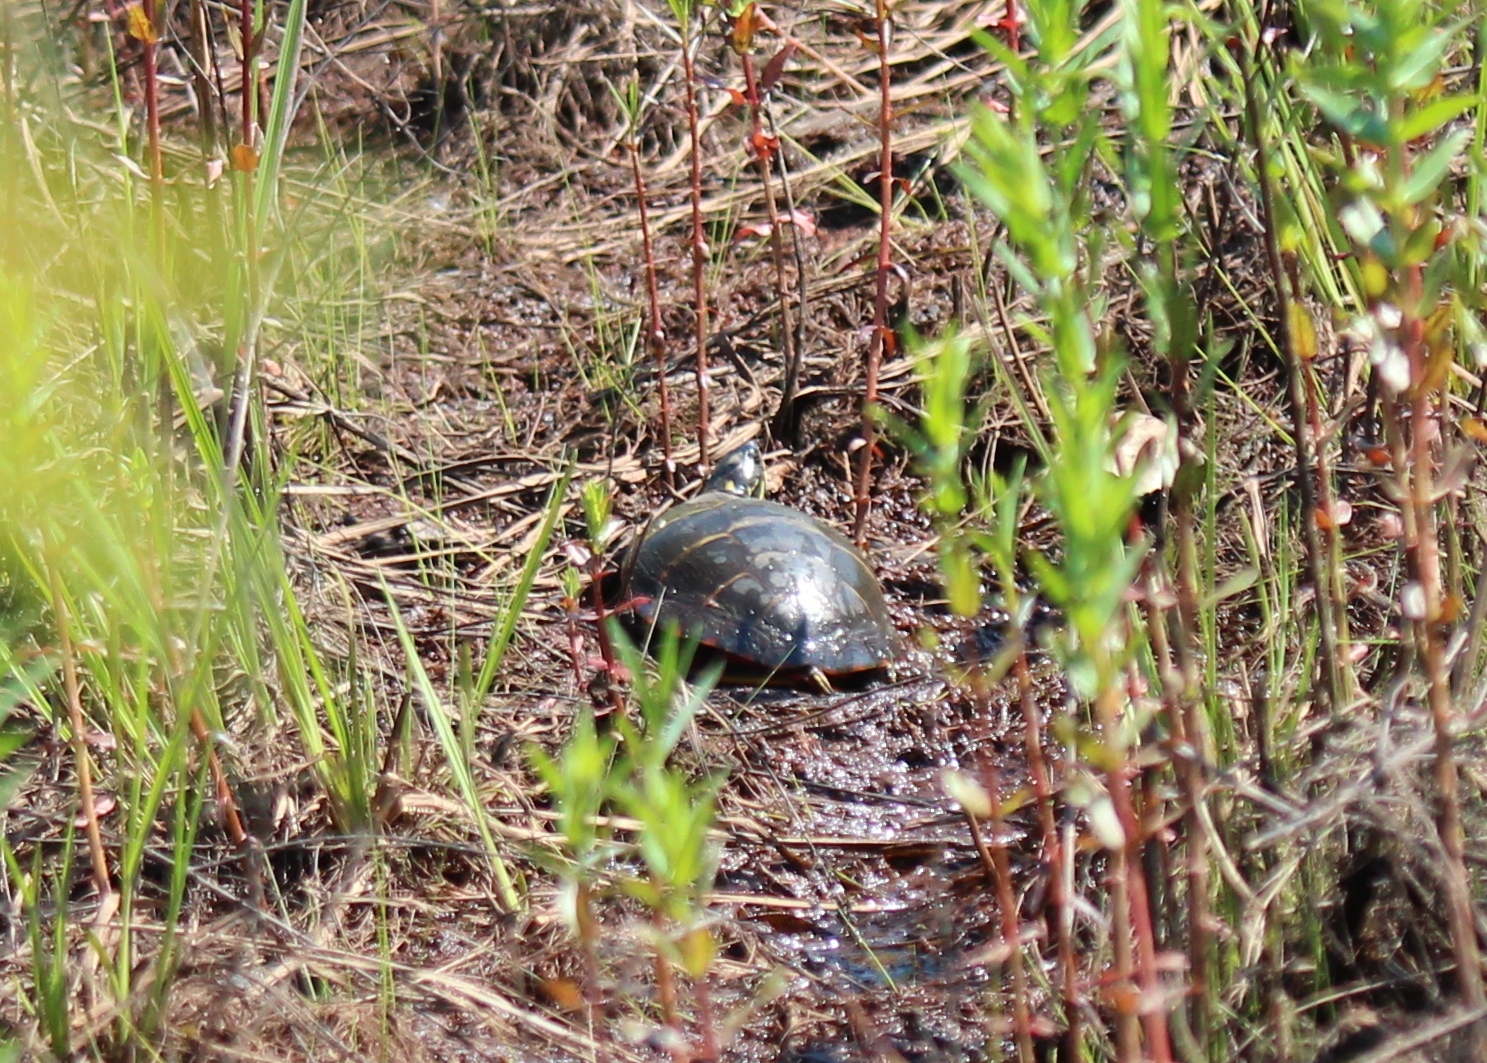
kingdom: Animalia
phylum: Chordata
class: Testudines
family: Emydidae
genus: Chrysemys
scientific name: Chrysemys picta
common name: Painted turtle
